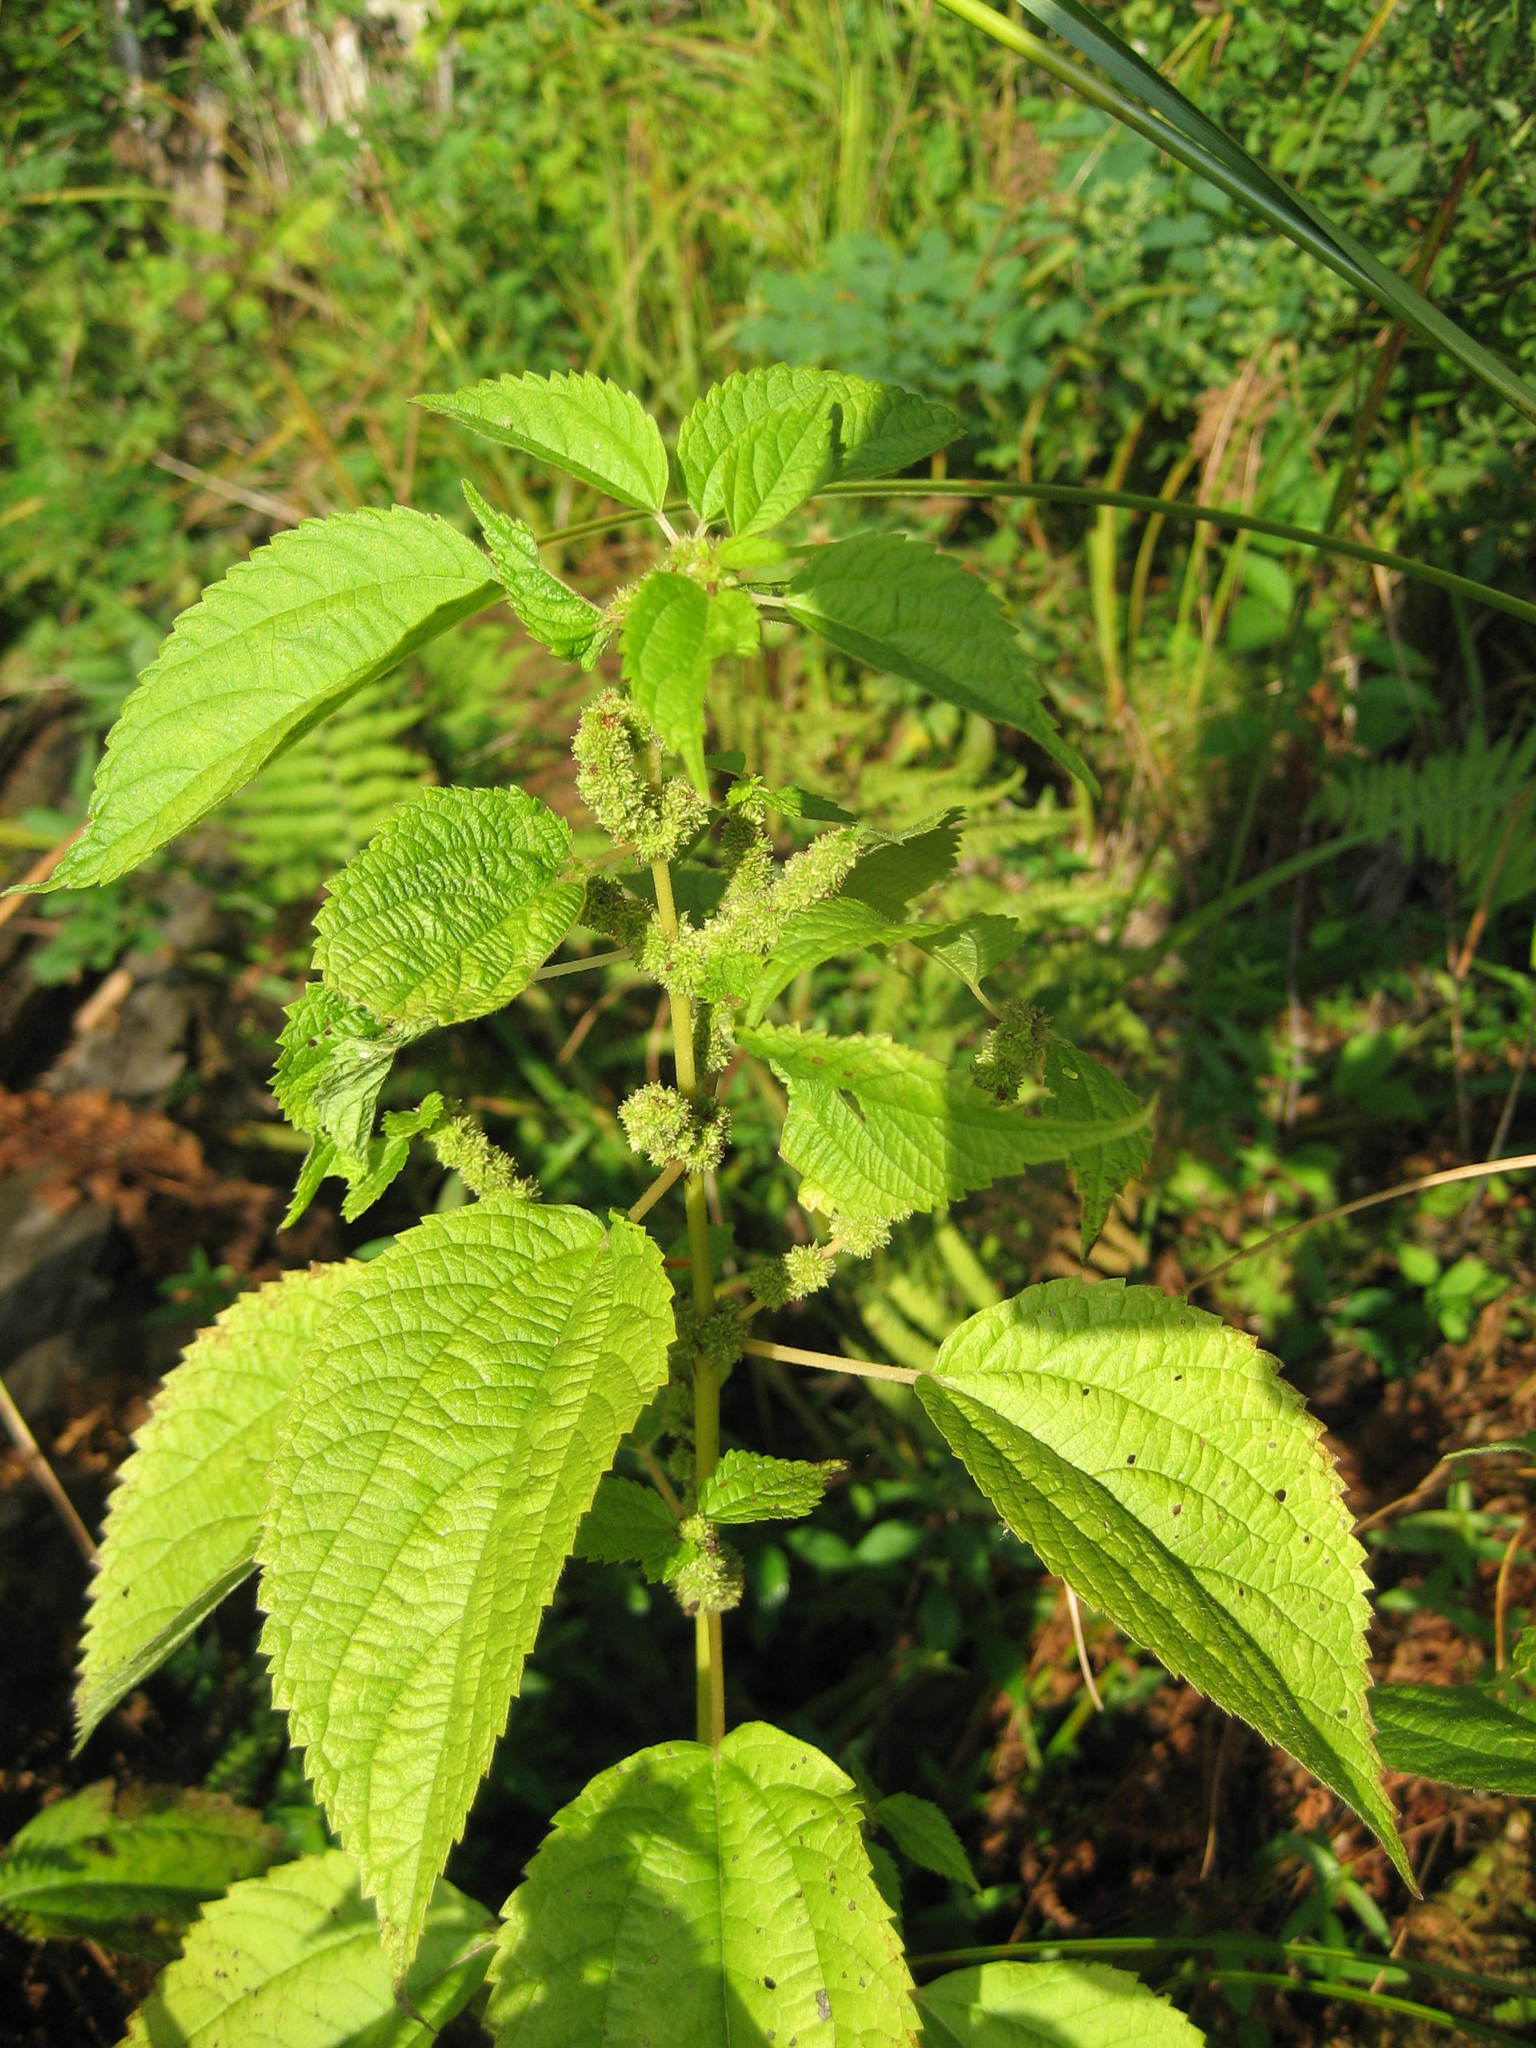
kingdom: Plantae
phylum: Tracheophyta
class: Magnoliopsida
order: Rosales
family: Urticaceae
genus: Boehmeria
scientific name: Boehmeria cylindrica
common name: Bog-hemp
